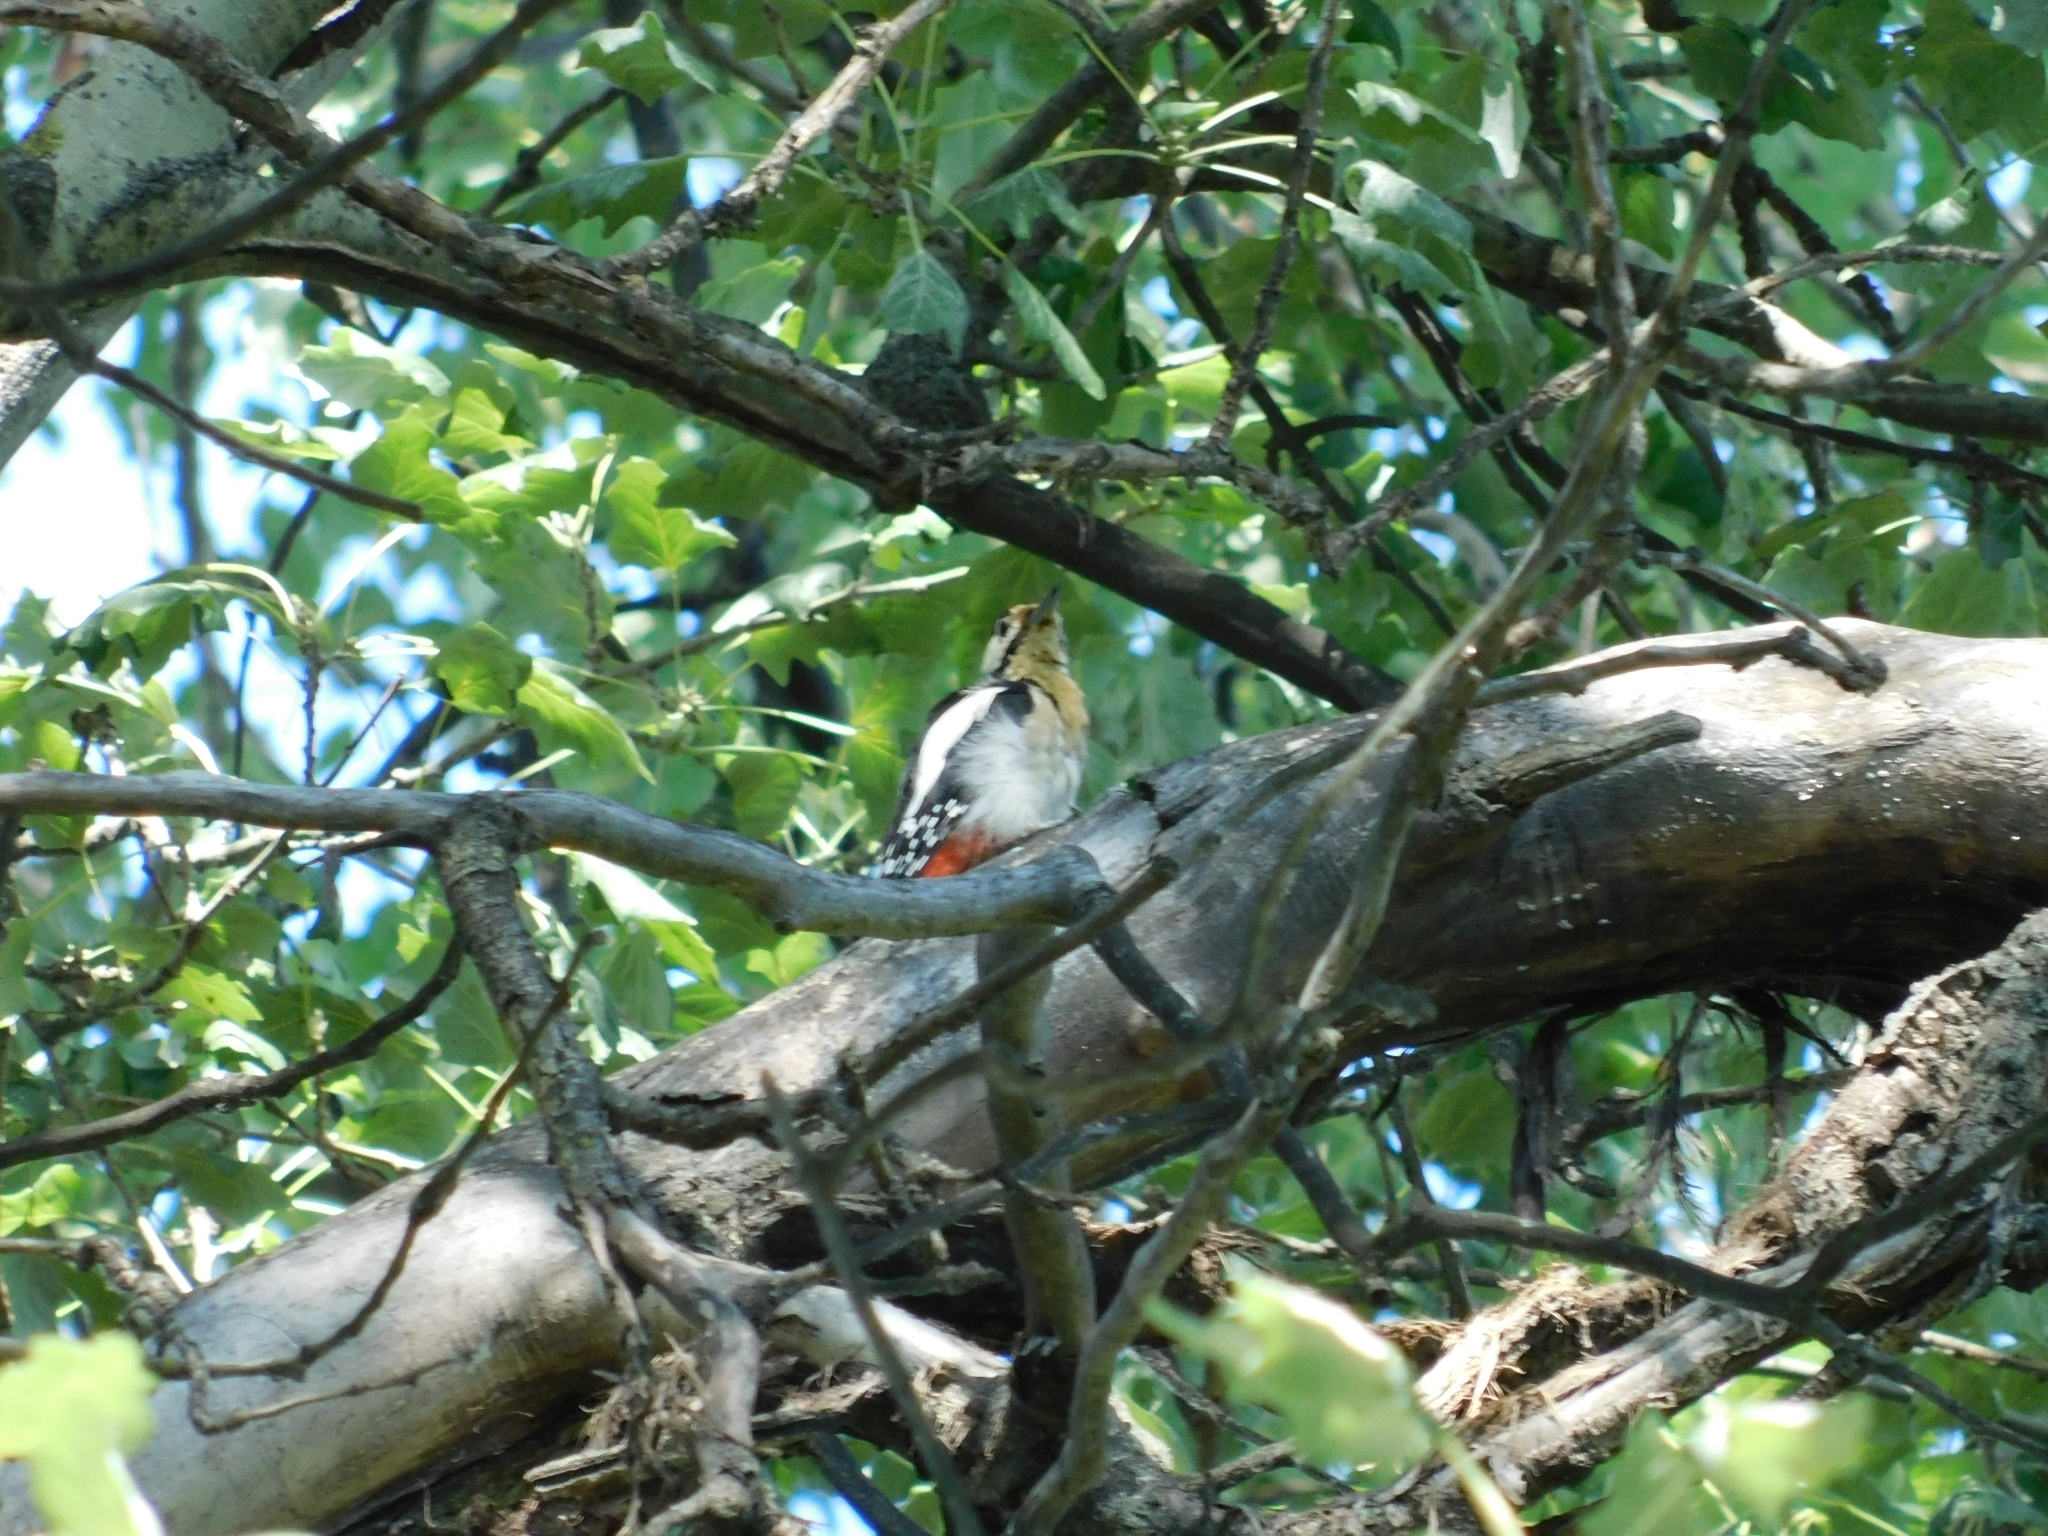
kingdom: Animalia
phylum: Chordata
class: Aves
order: Piciformes
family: Picidae
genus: Dendrocopos
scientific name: Dendrocopos major
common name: Great spotted woodpecker
